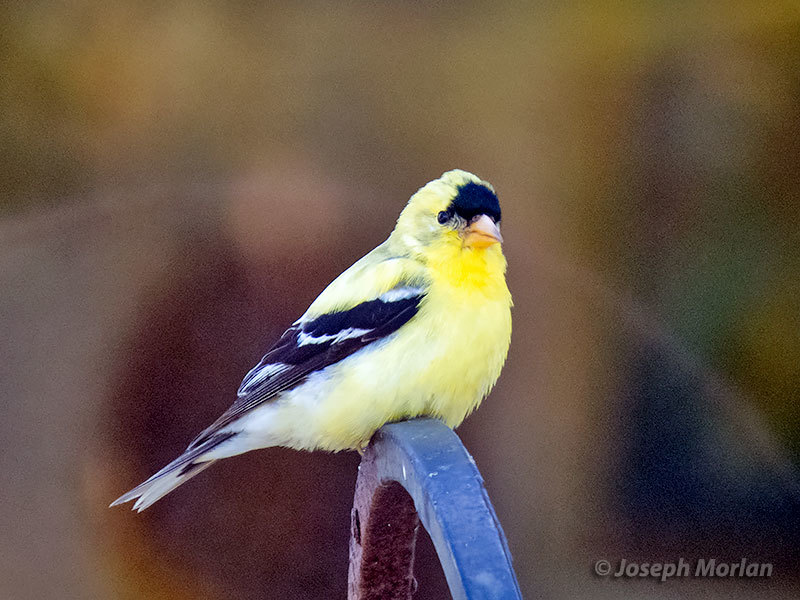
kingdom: Animalia
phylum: Chordata
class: Aves
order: Passeriformes
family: Fringillidae
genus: Spinus
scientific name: Spinus tristis
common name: American goldfinch
